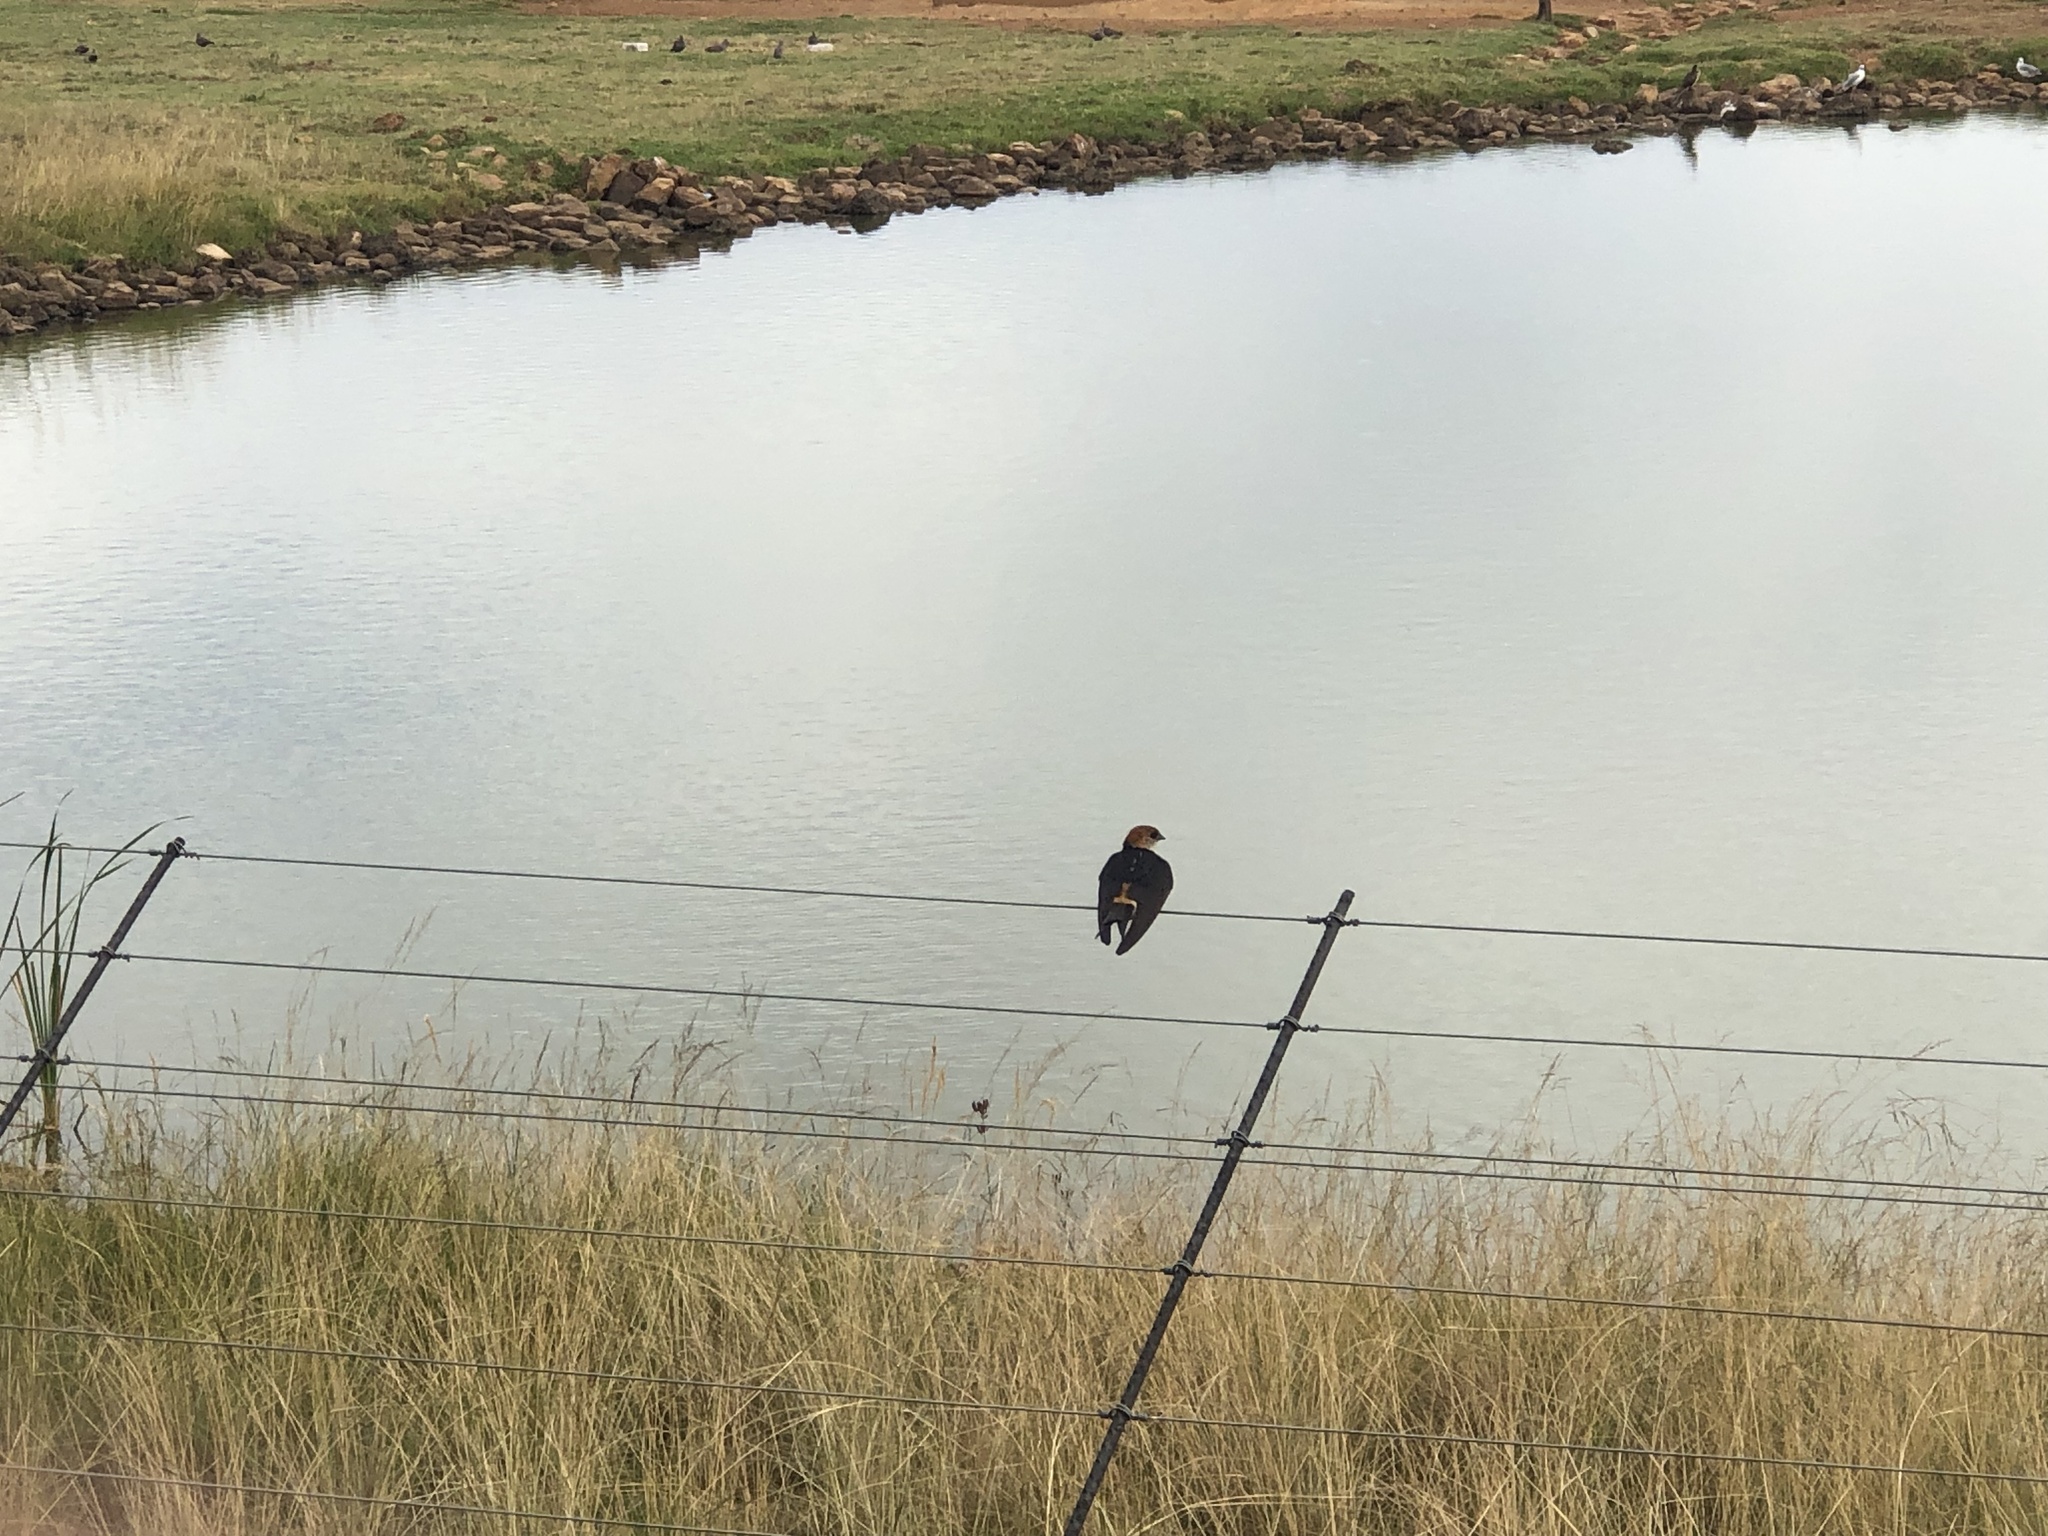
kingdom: Animalia
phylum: Chordata
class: Aves
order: Passeriformes
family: Hirundinidae
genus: Cecropis
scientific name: Cecropis cucullata
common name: Greater striped-swallow
